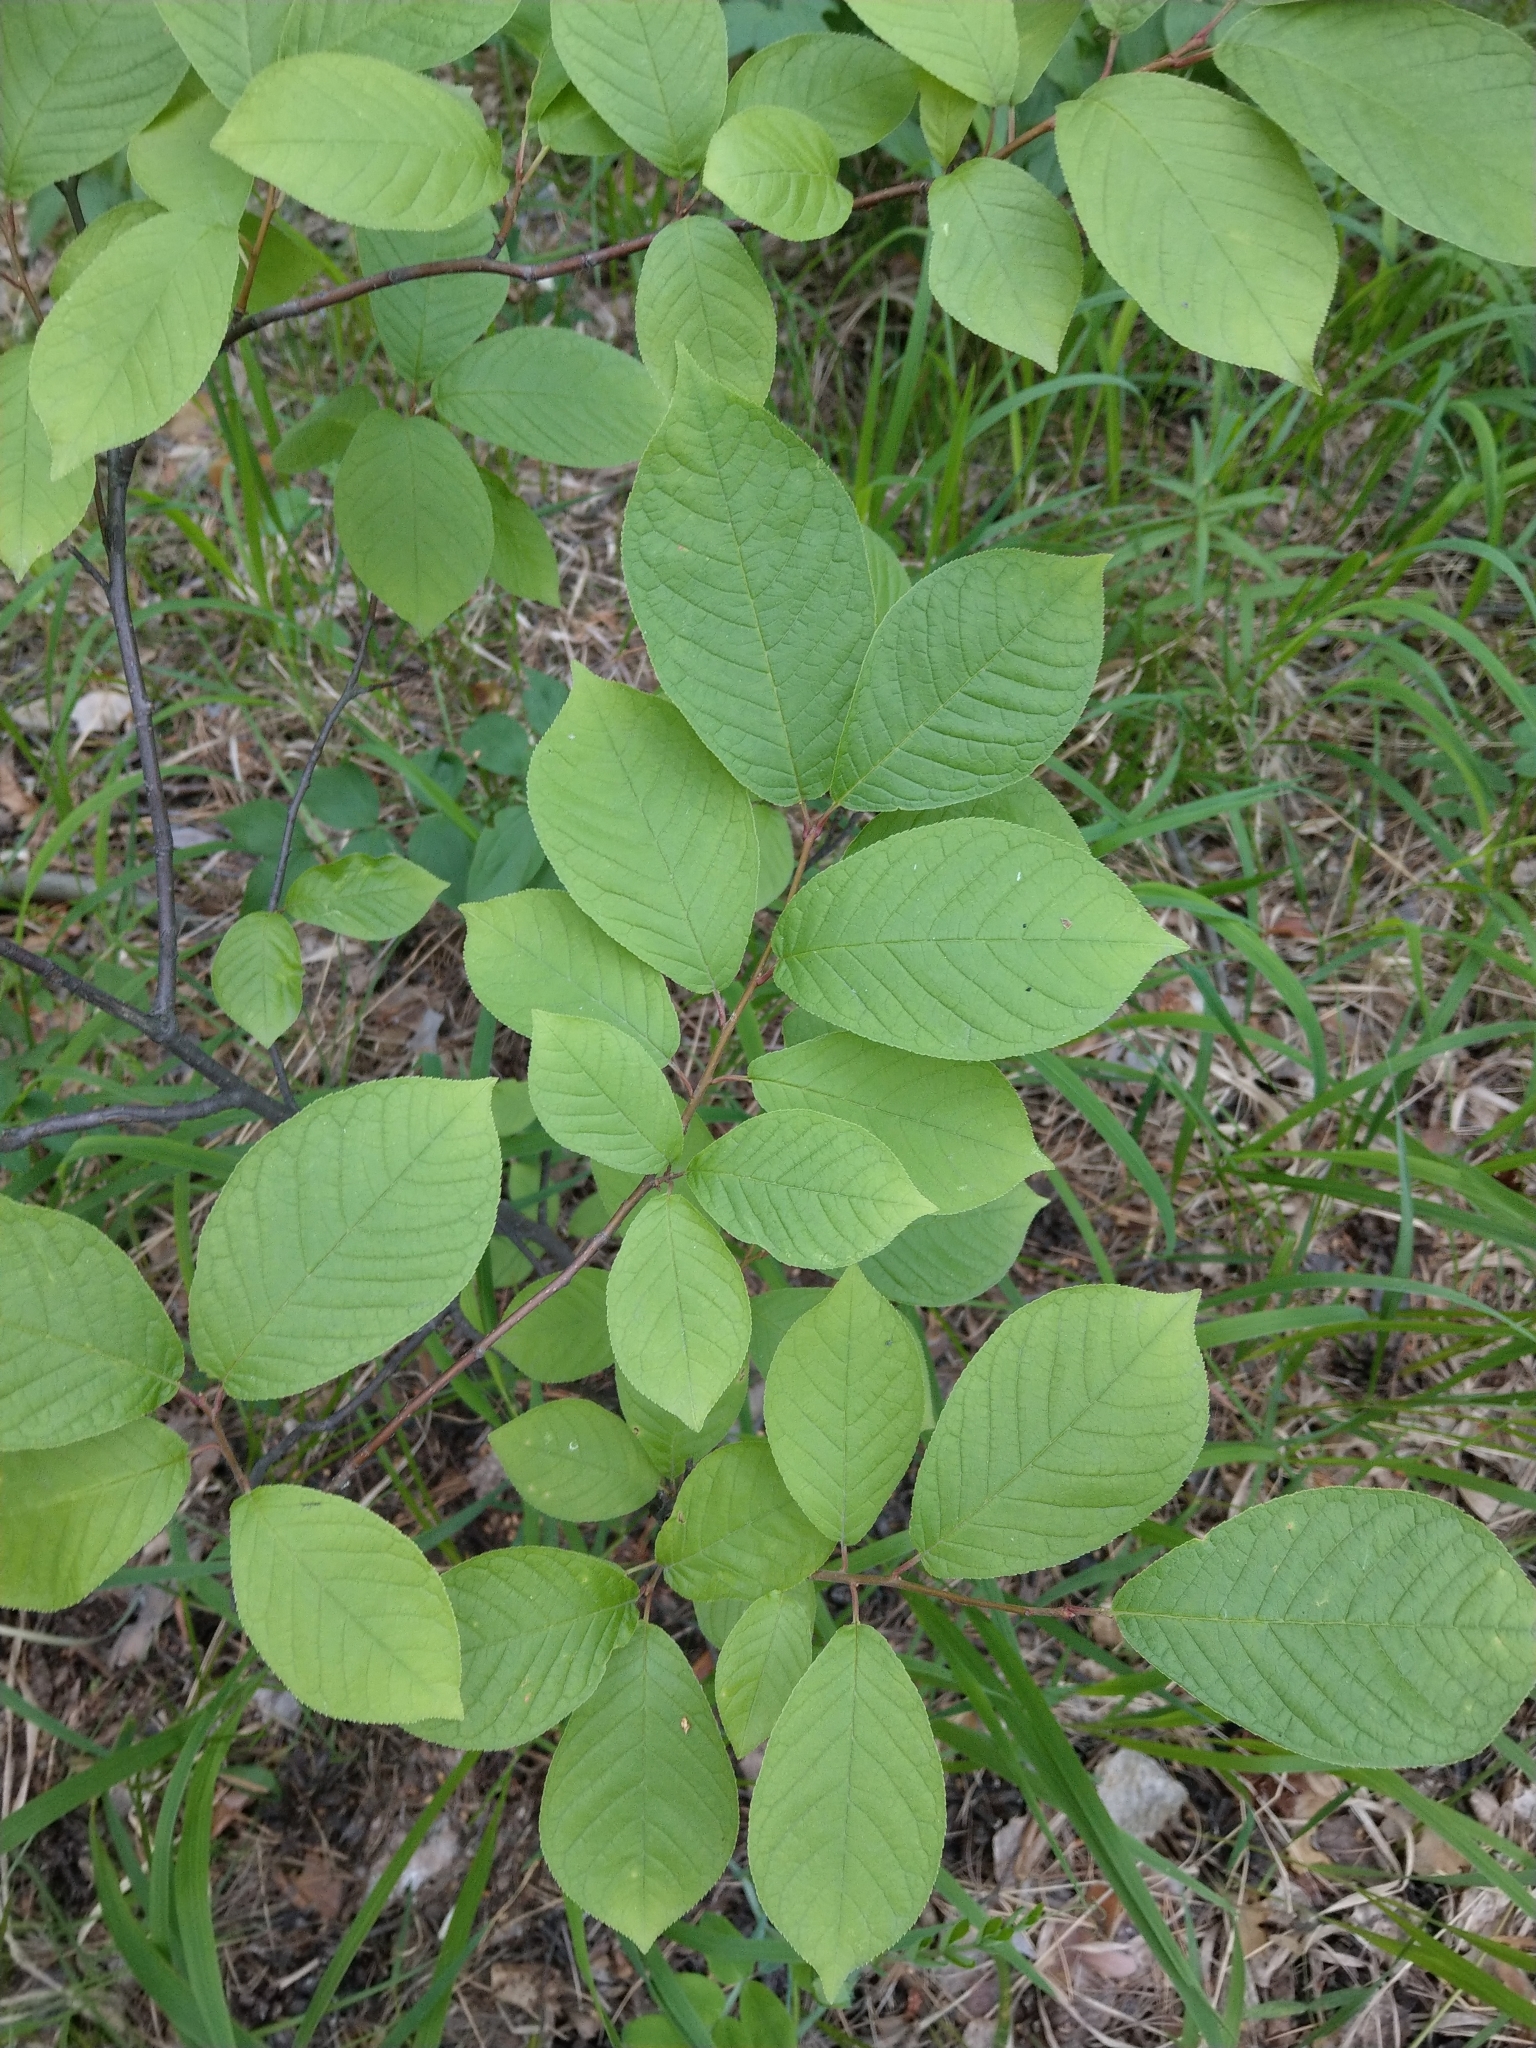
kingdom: Plantae
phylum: Tracheophyta
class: Magnoliopsida
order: Rosales
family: Rosaceae
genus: Prunus
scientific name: Prunus padus
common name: Bird cherry
